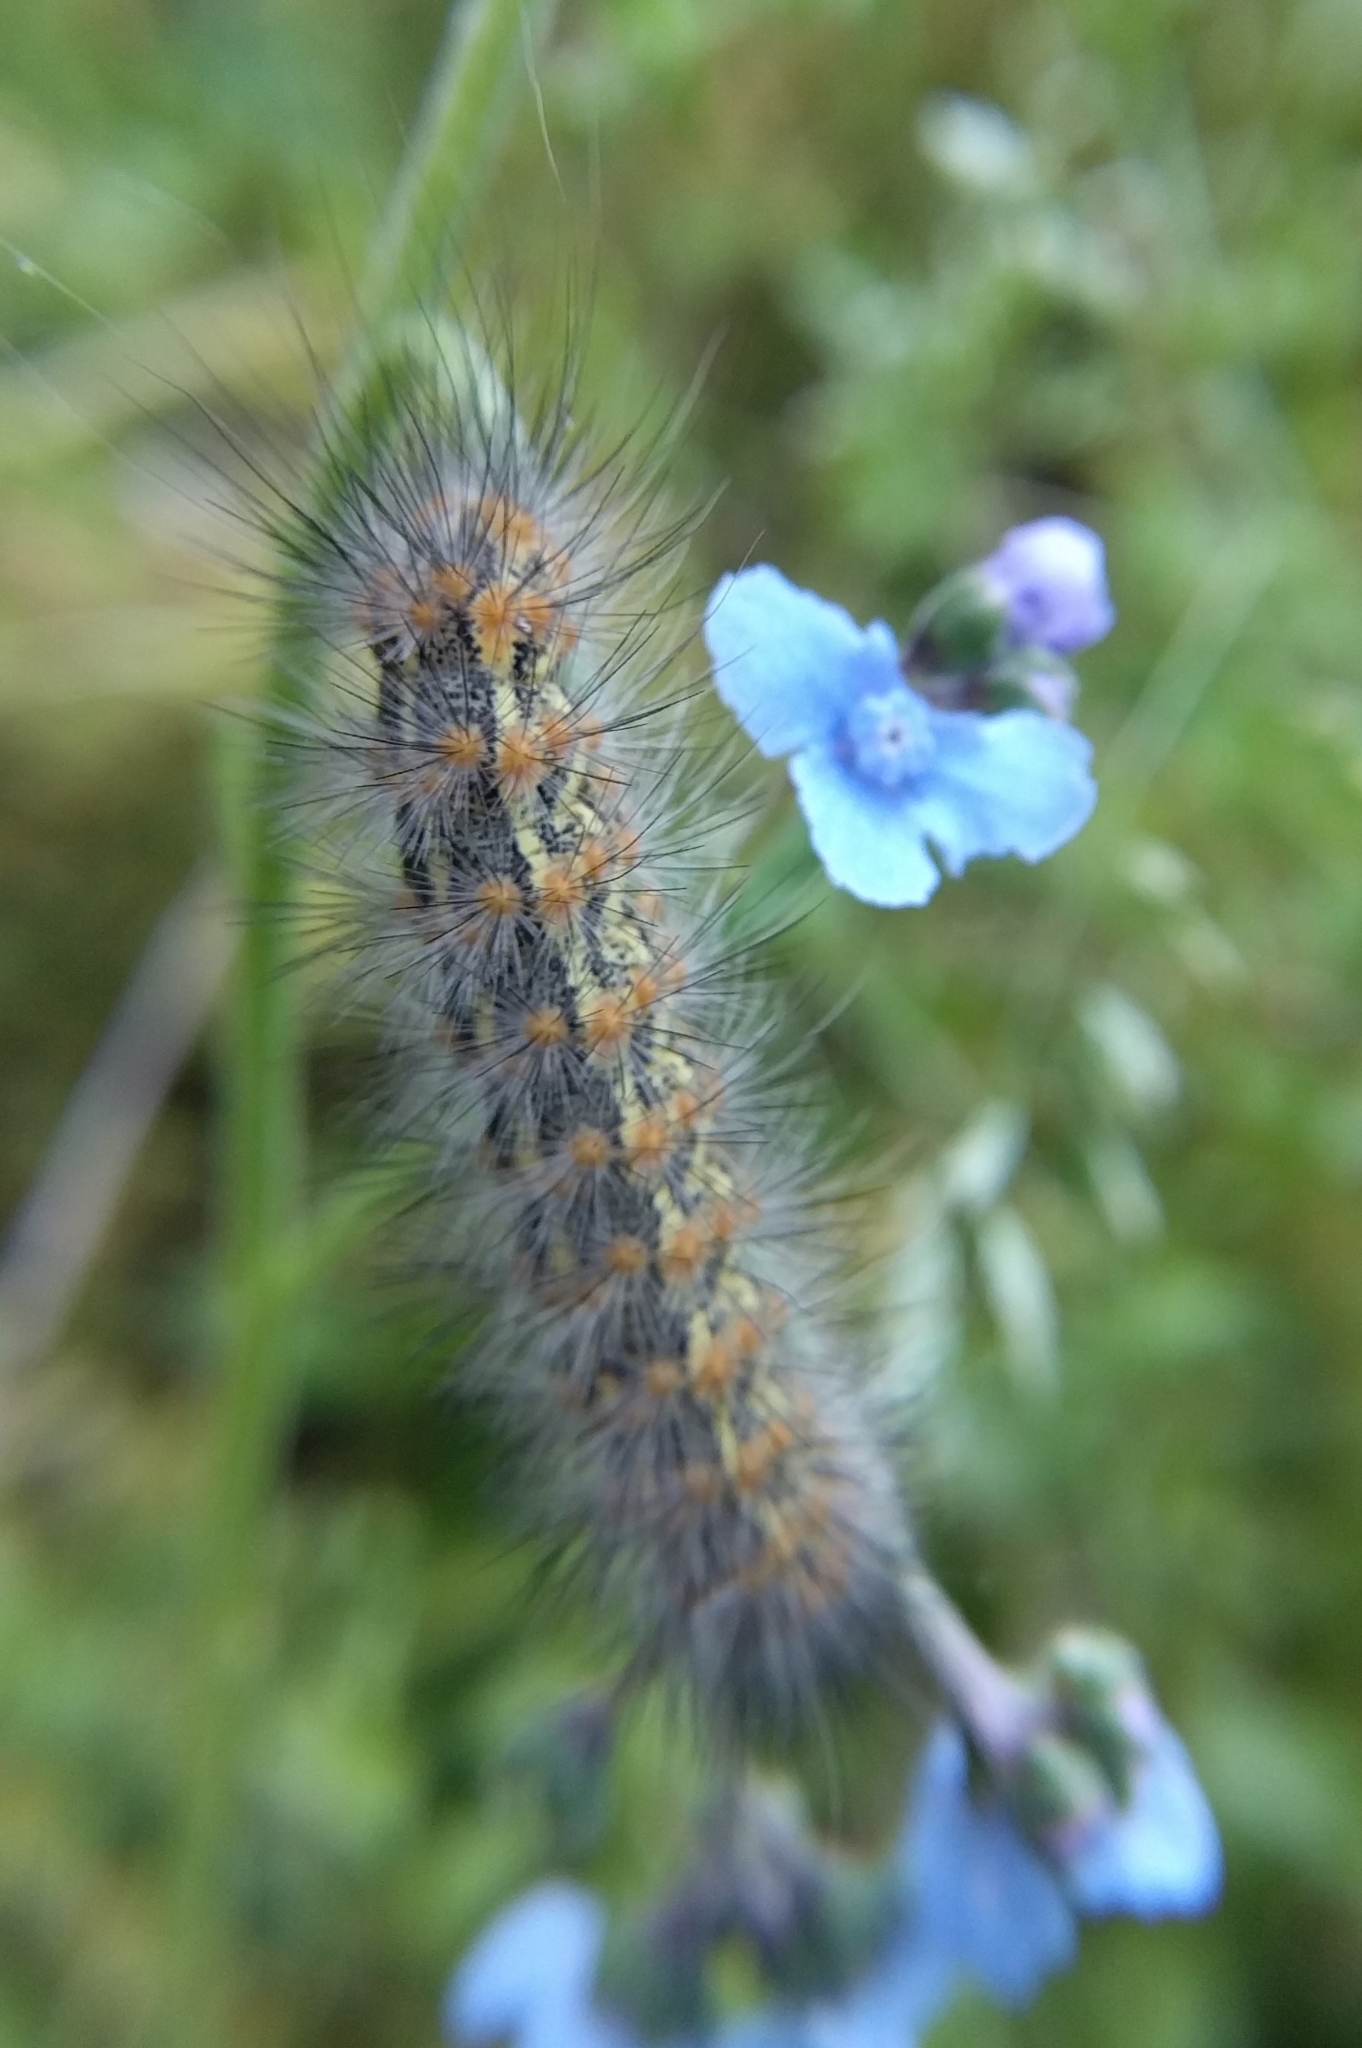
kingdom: Animalia
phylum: Arthropoda
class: Insecta
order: Lepidoptera
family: Erebidae
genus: Estigmene
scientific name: Estigmene acrea
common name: Salt marsh moth
